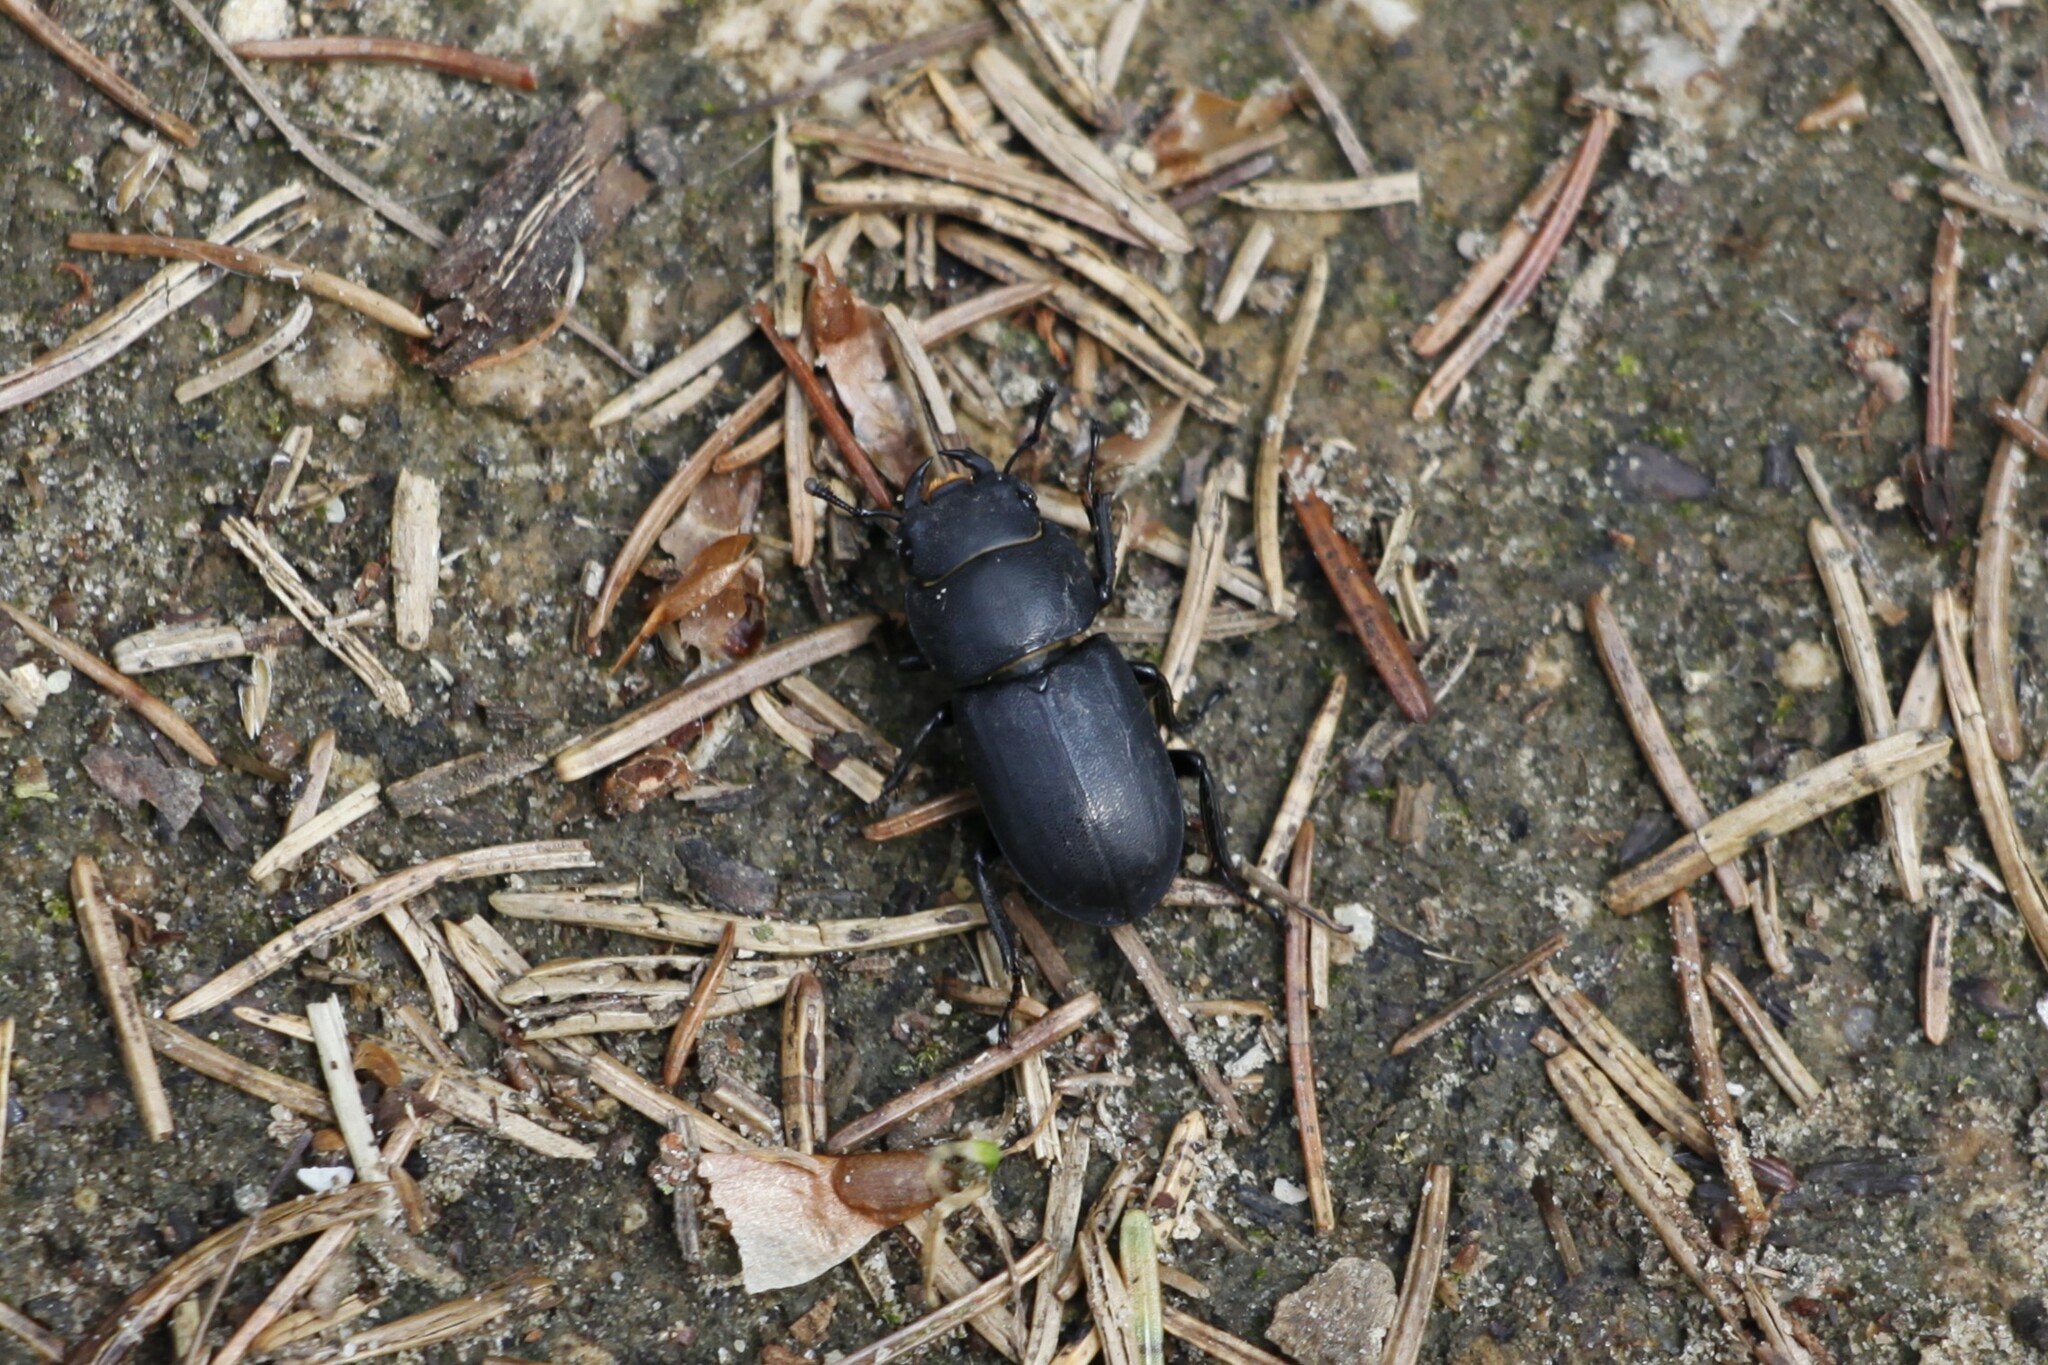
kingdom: Animalia
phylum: Arthropoda
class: Insecta
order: Coleoptera
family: Lucanidae
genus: Dorcus
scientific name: Dorcus parallelipipedus
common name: Lesser stag beetle
